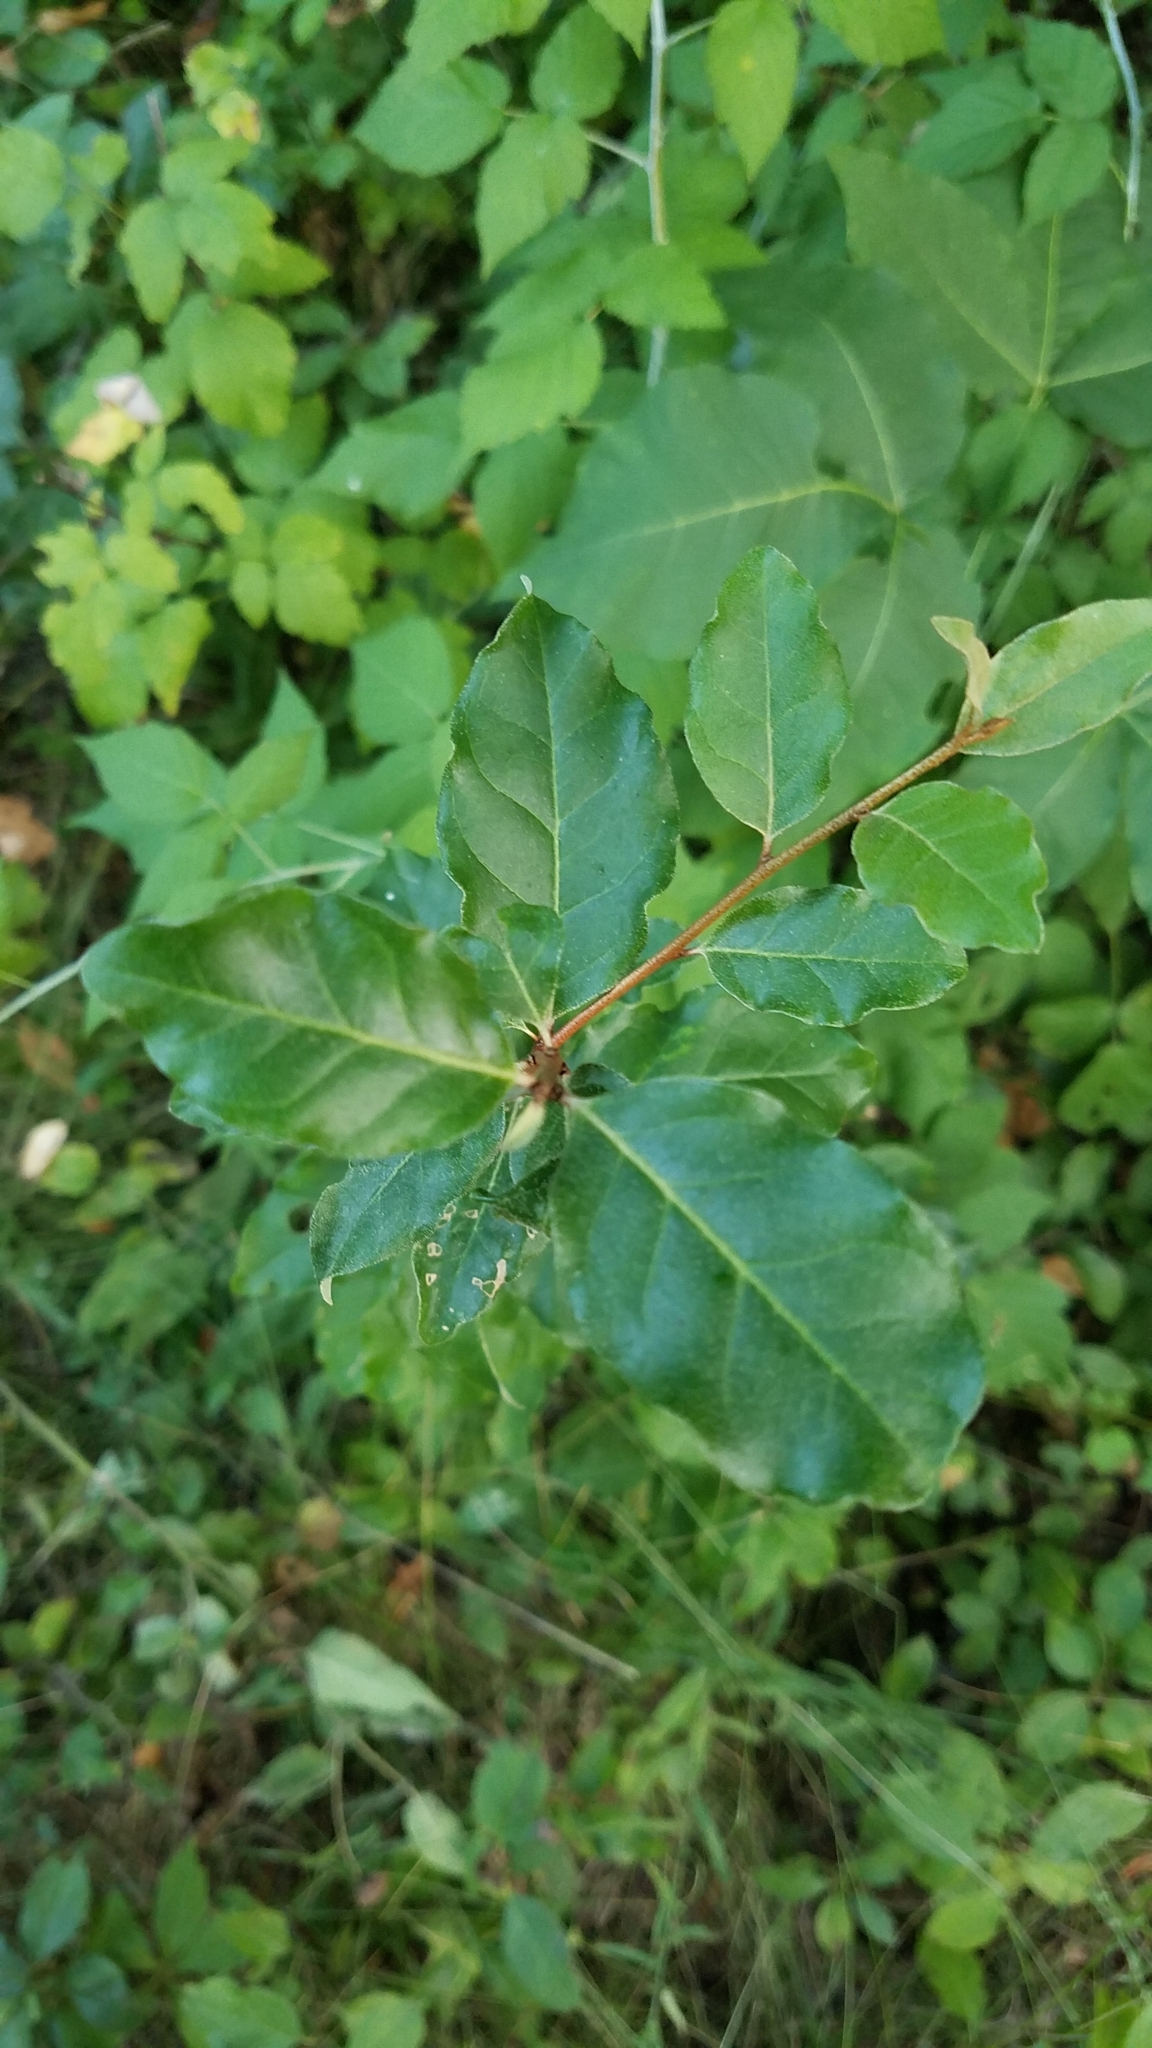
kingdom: Plantae
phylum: Tracheophyta
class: Magnoliopsida
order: Rosales
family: Elaeagnaceae
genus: Elaeagnus
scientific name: Elaeagnus umbellata
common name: Autumn olive
